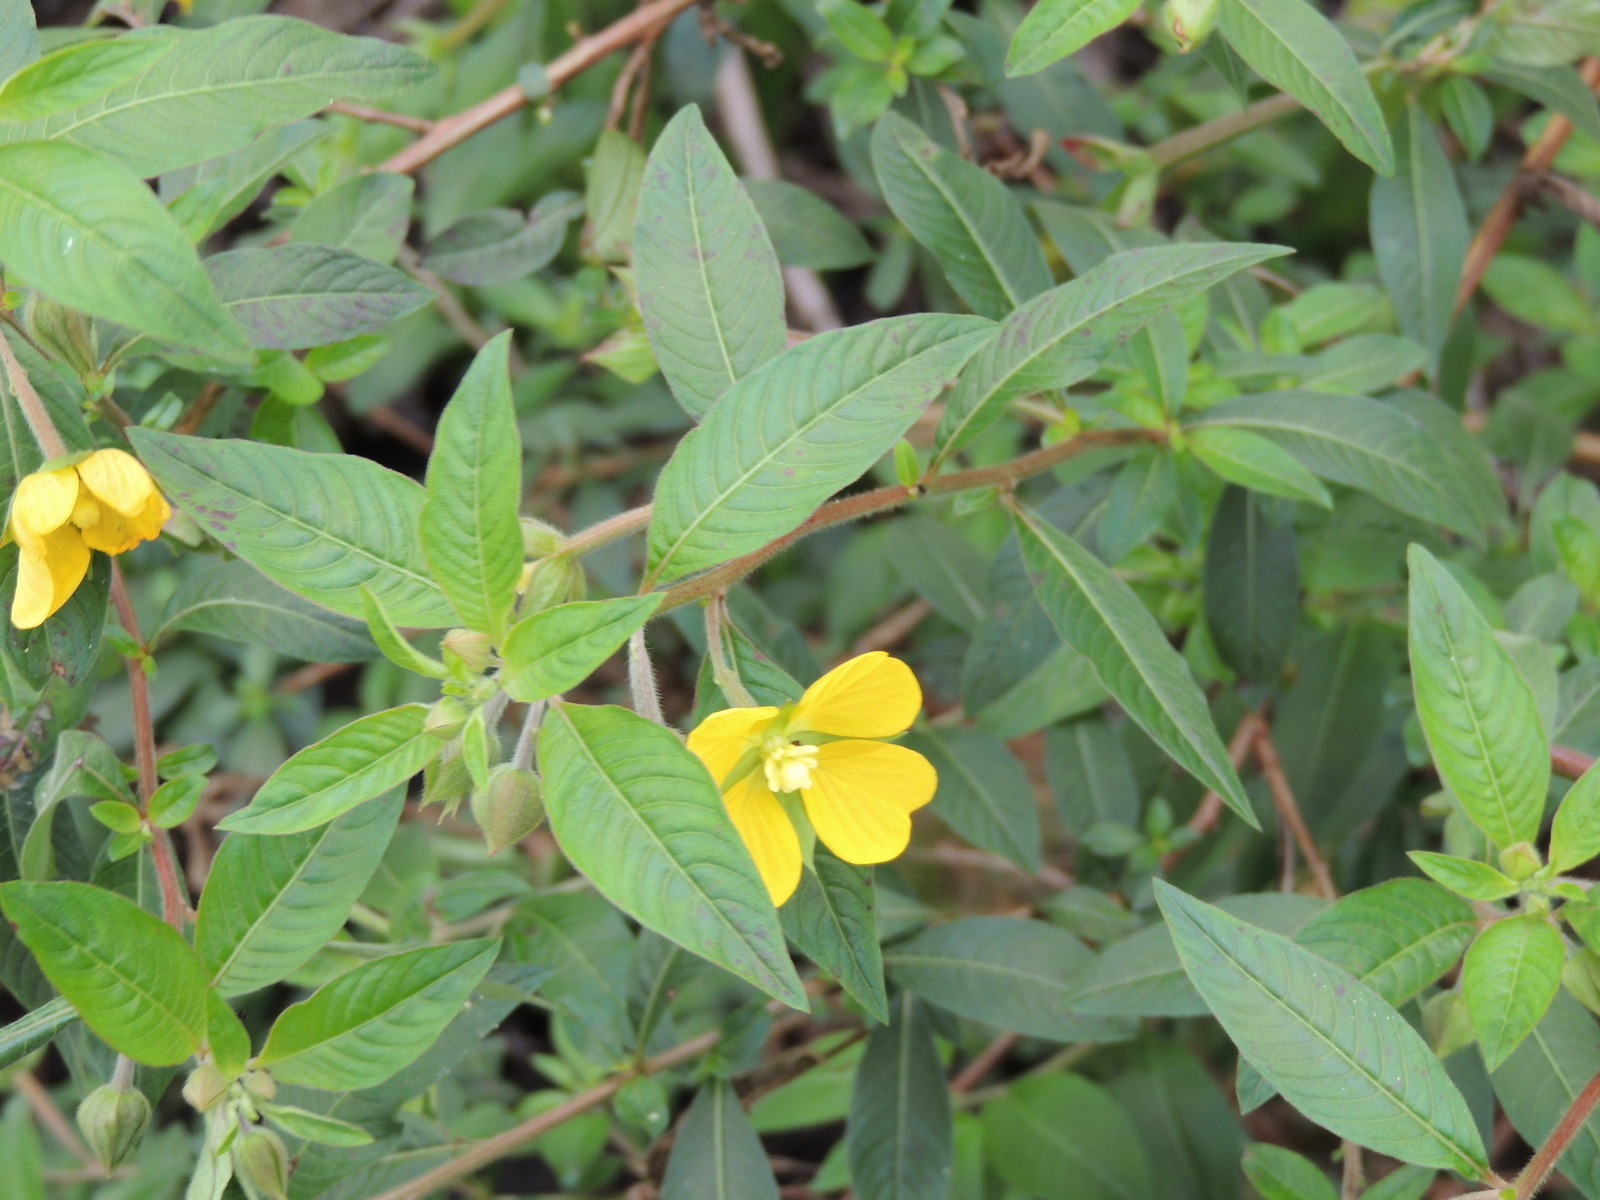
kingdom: Plantae
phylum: Tracheophyta
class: Magnoliopsida
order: Myrtales
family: Onagraceae
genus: Ludwigia
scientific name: Ludwigia octovalvis
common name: Water-primrose
